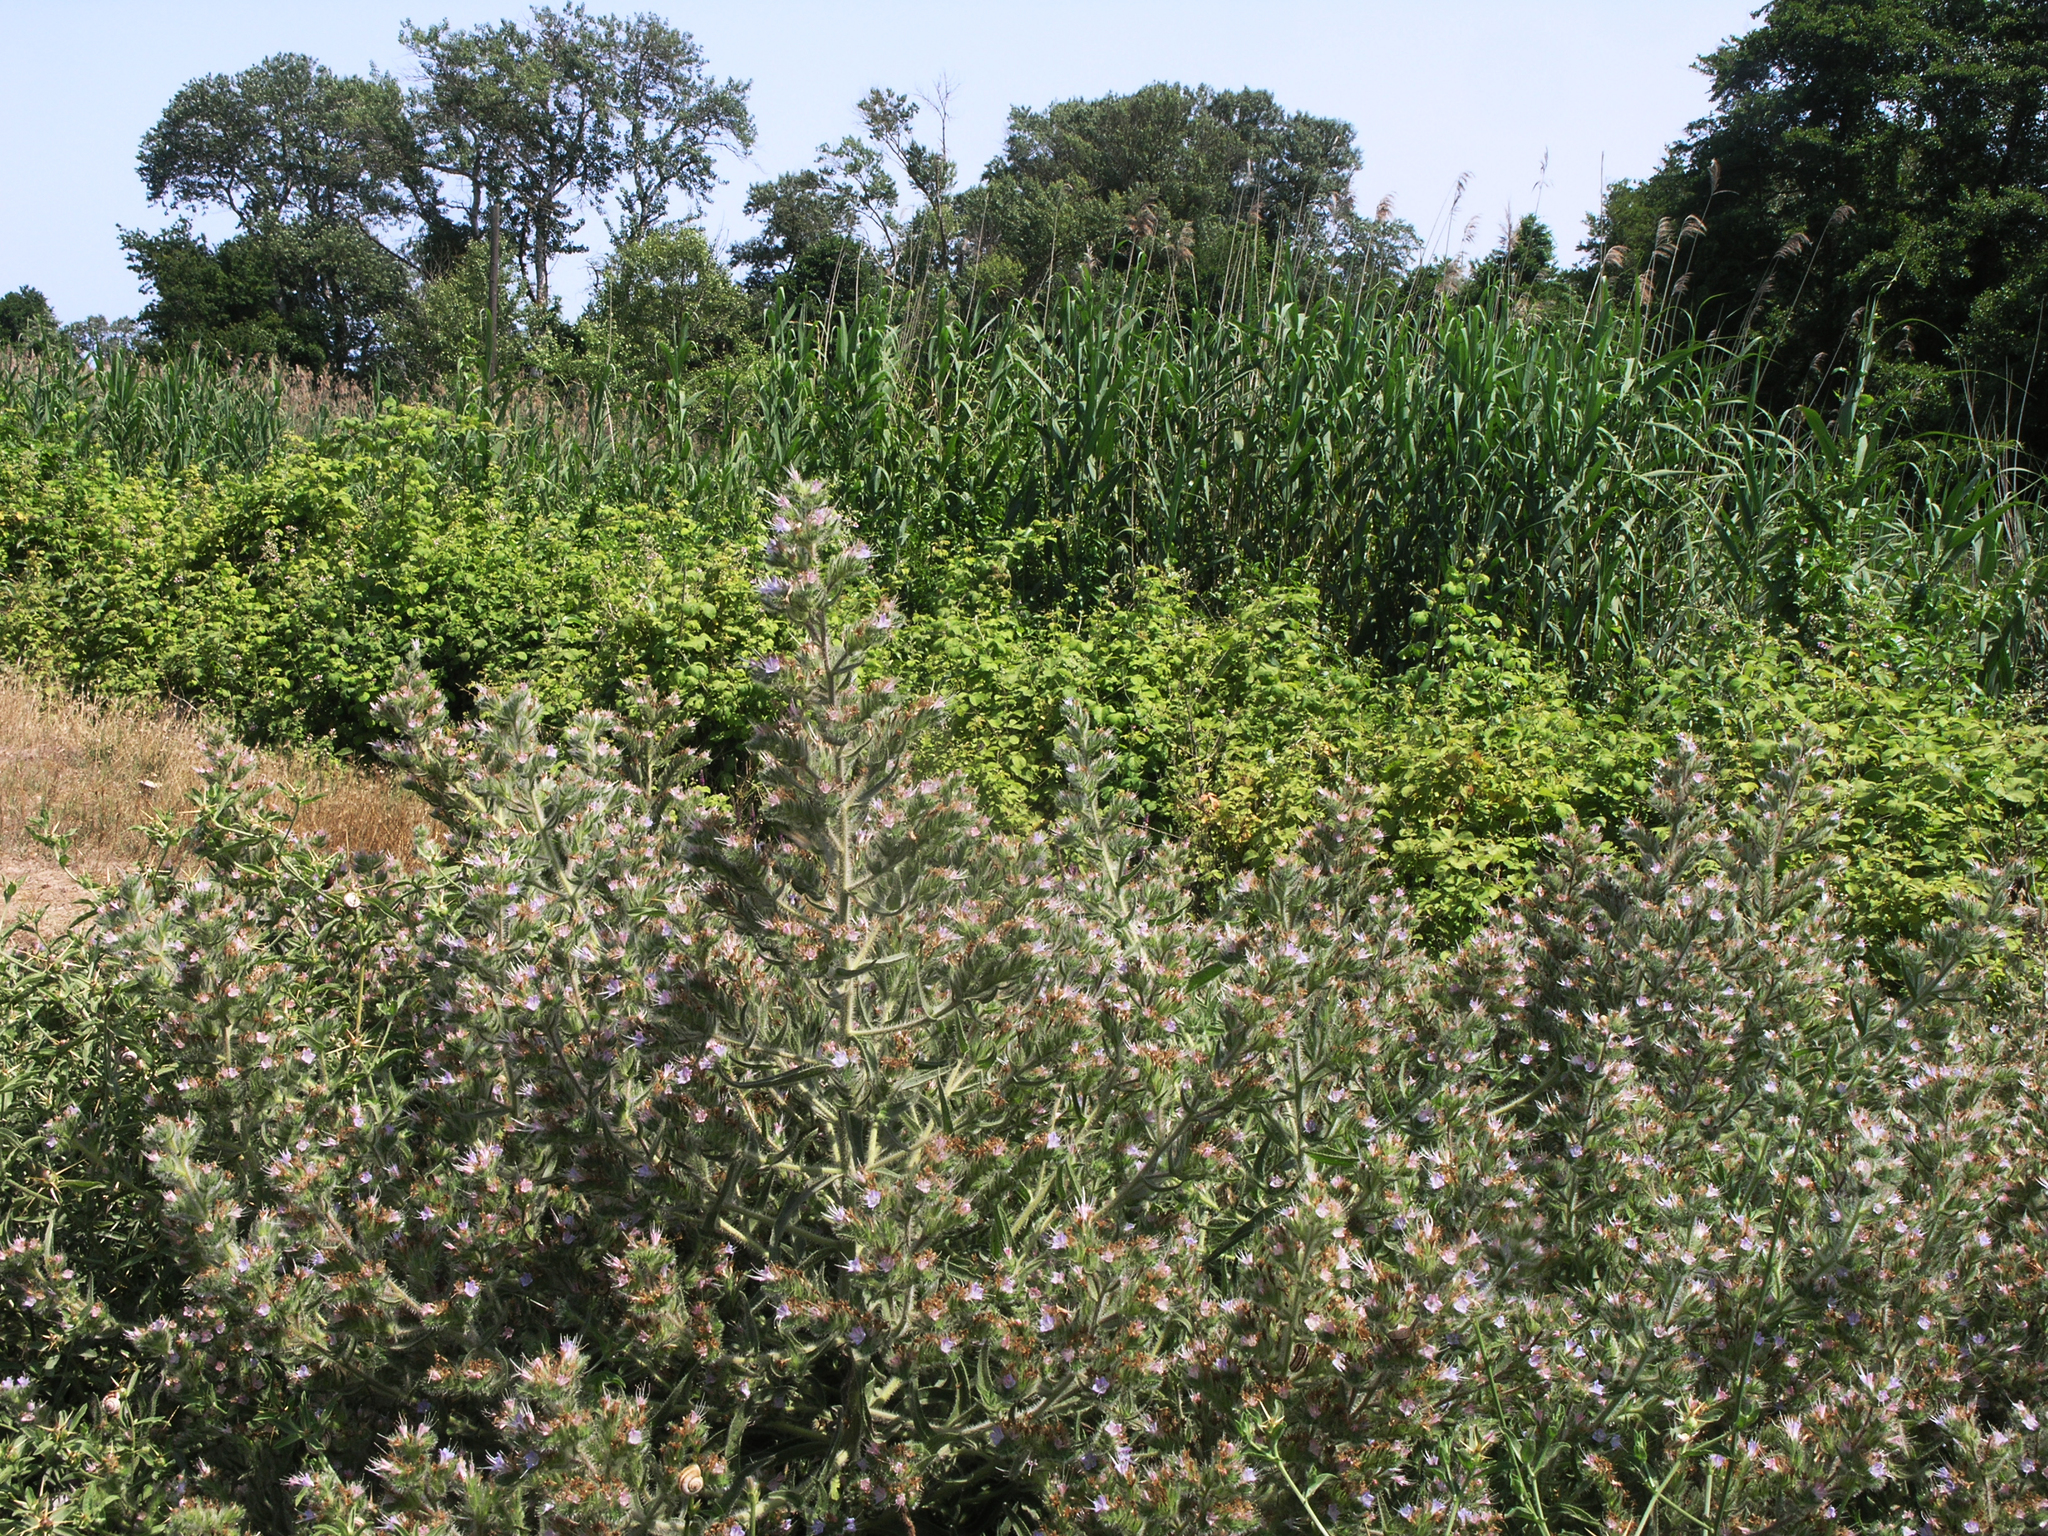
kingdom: Plantae
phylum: Tracheophyta
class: Magnoliopsida
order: Boraginales
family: Boraginaceae
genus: Echium
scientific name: Echium italicum
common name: Italian viper's bugloss
